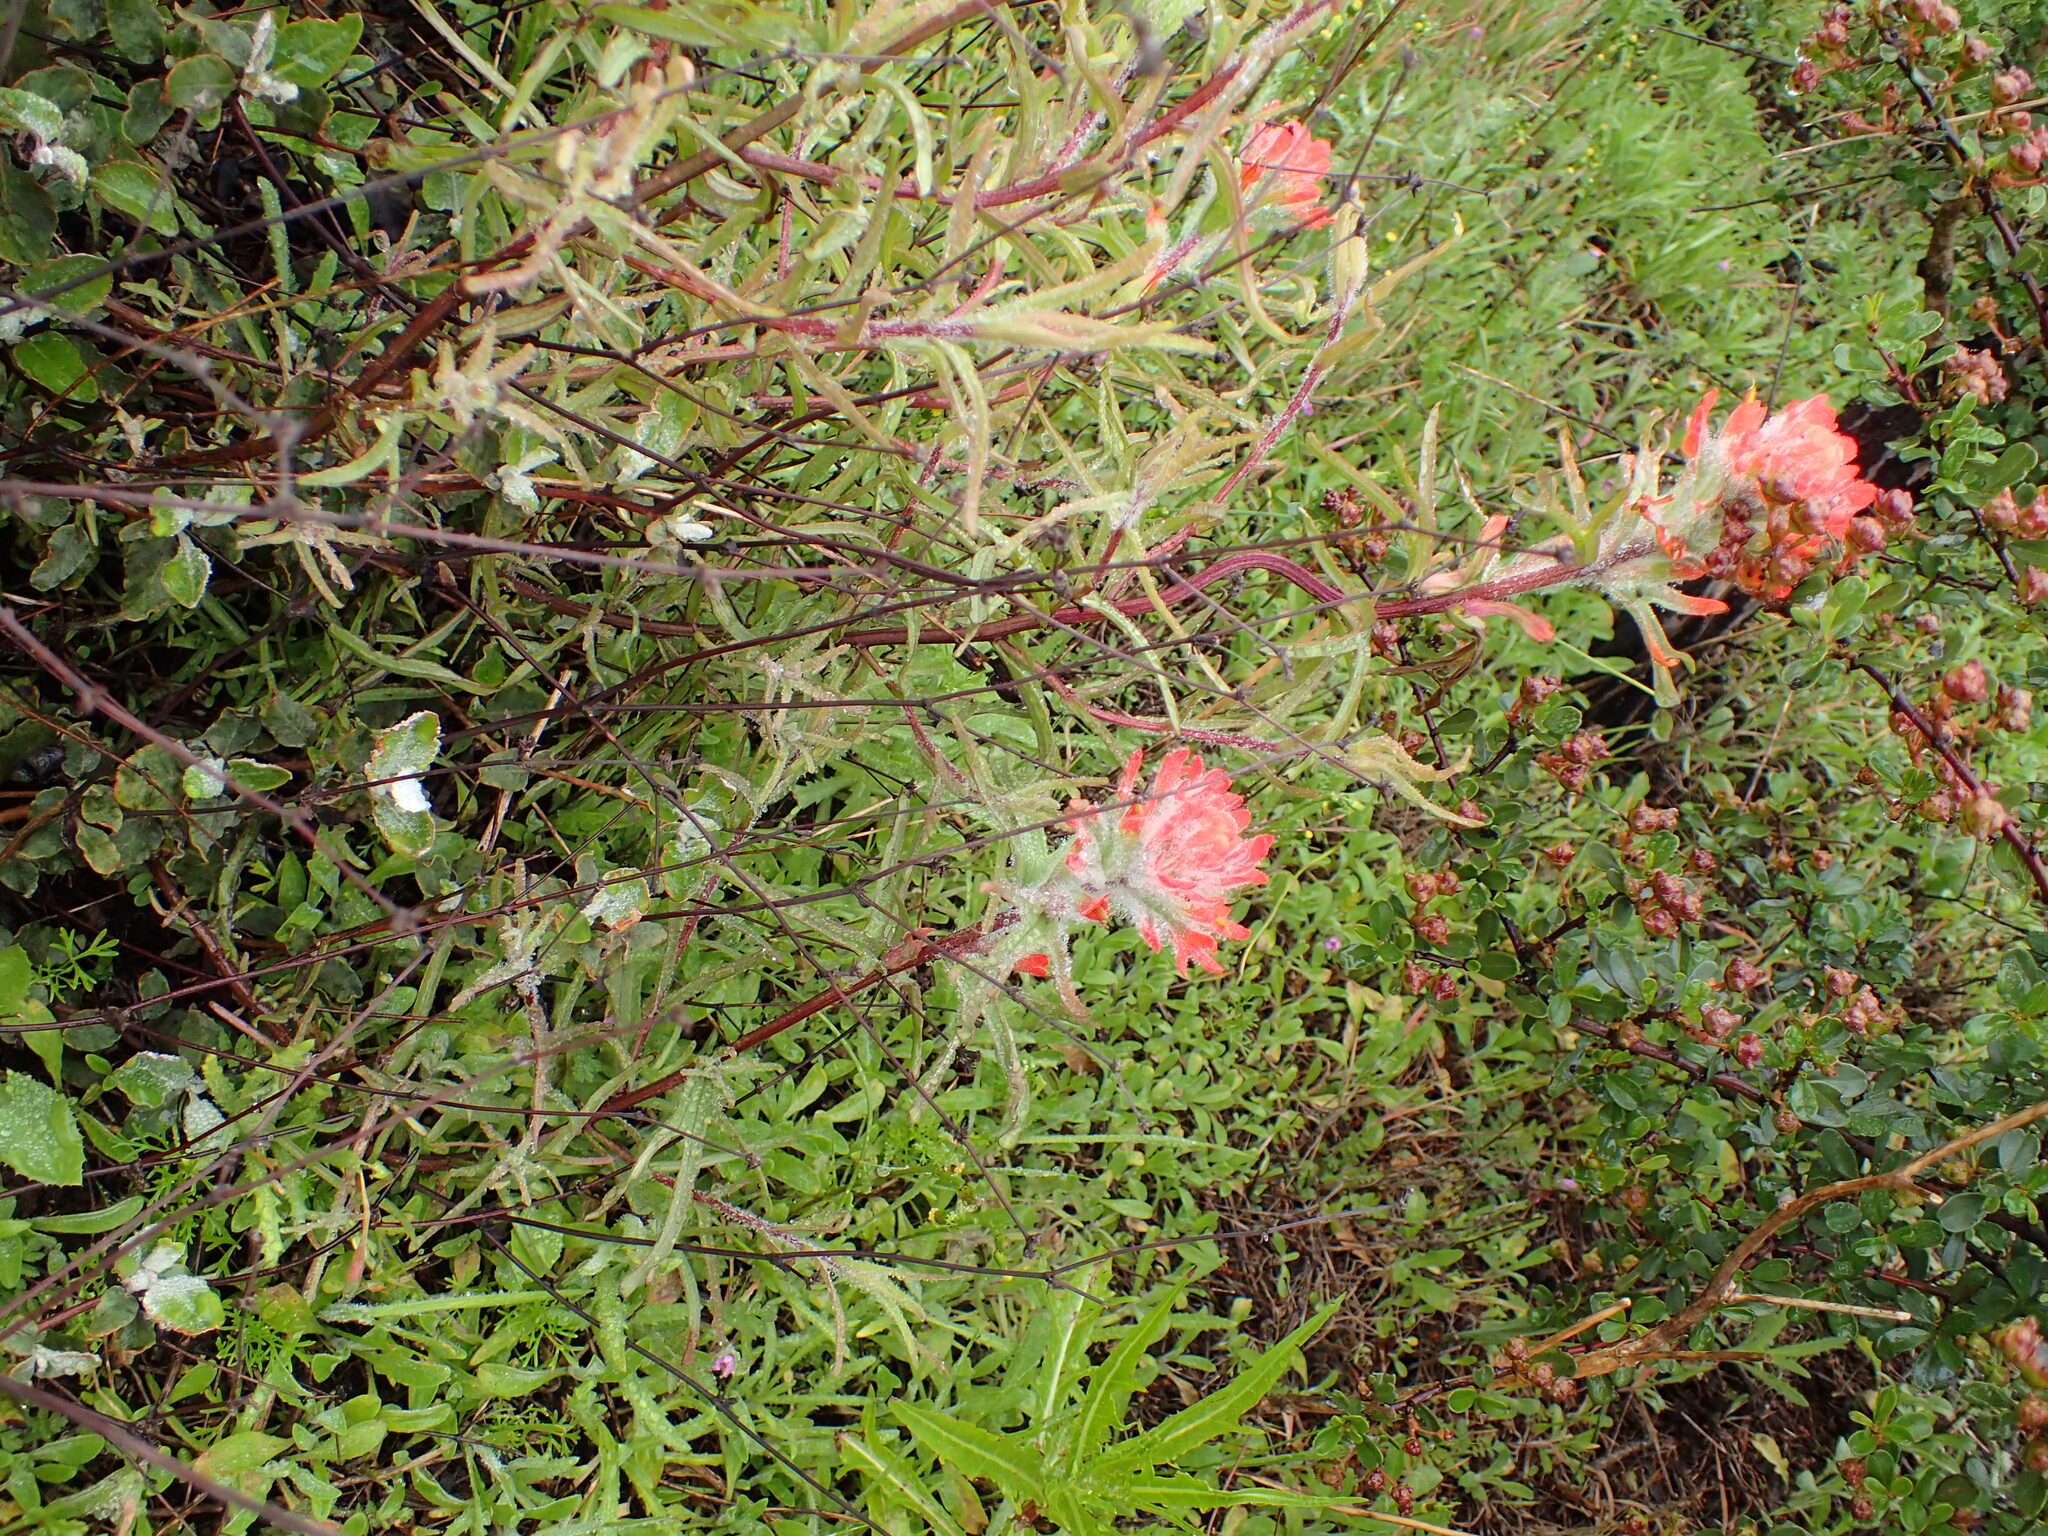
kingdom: Plantae
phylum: Tracheophyta
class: Magnoliopsida
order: Lamiales
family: Orobanchaceae
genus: Castilleja
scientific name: Castilleja affinis
